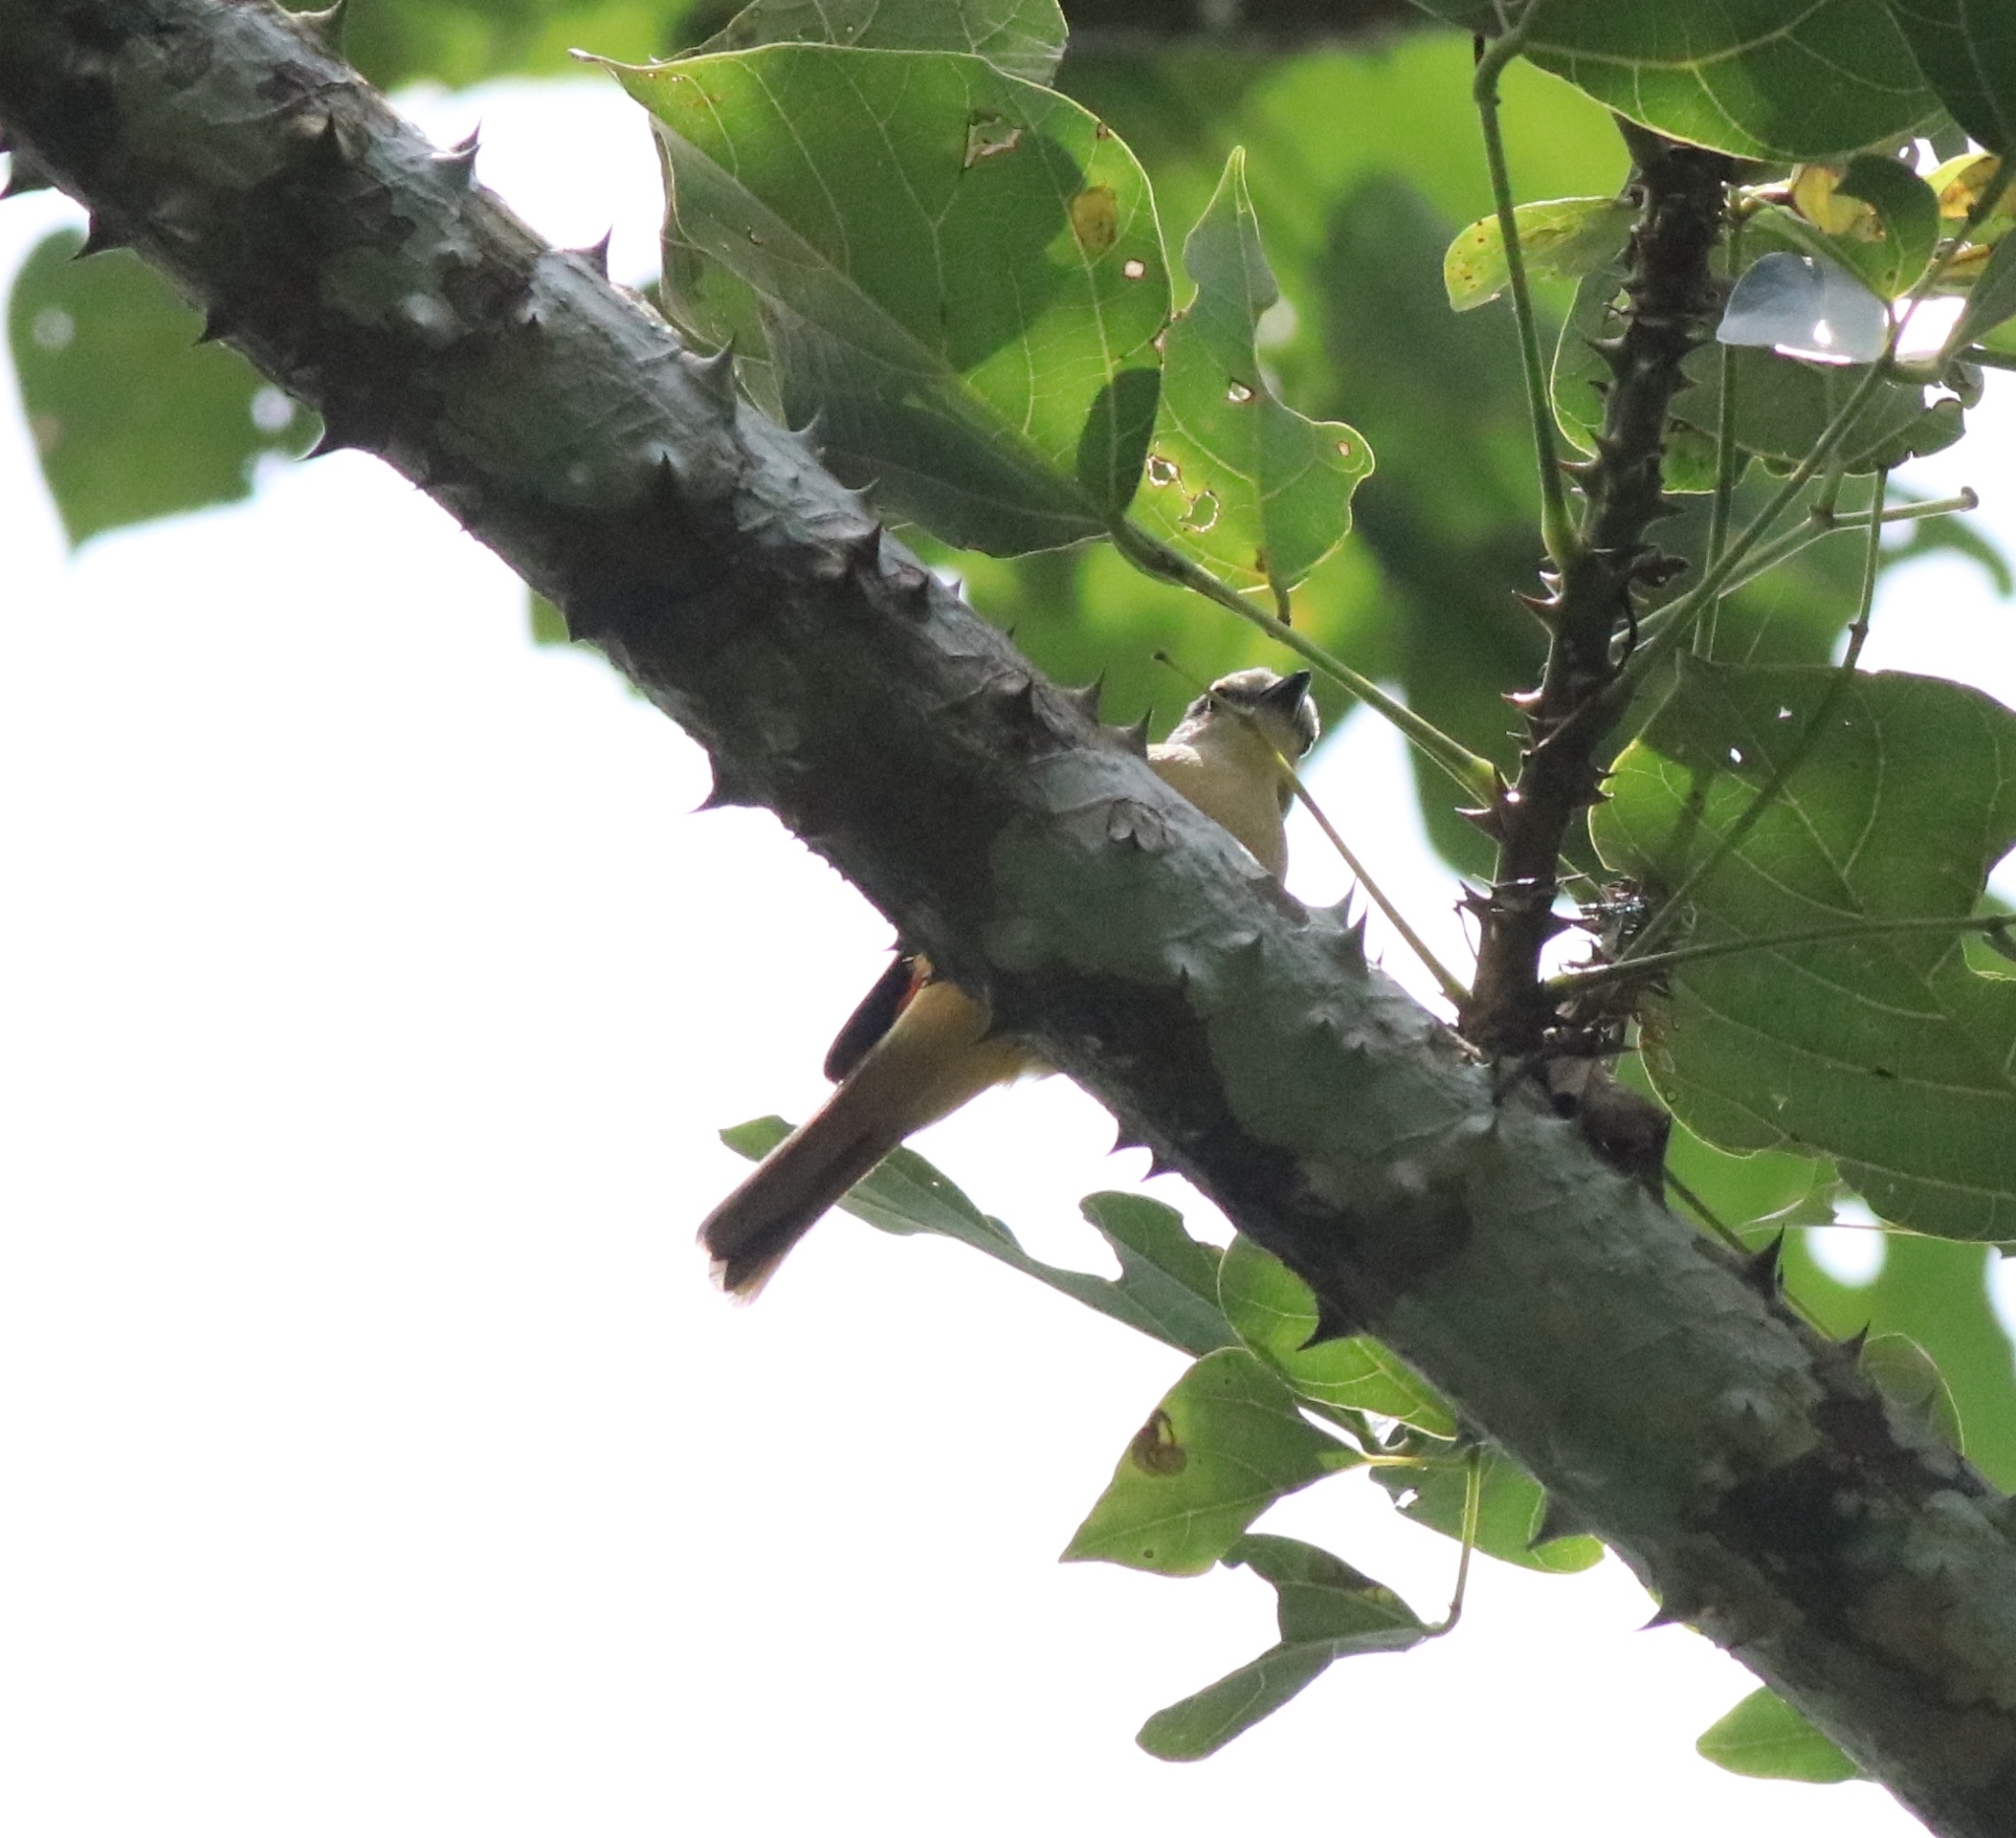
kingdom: Animalia
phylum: Chordata
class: Aves
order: Passeriformes
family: Campephagidae
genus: Pericrocotus
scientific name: Pericrocotus cinnamomeus
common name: Small minivet
